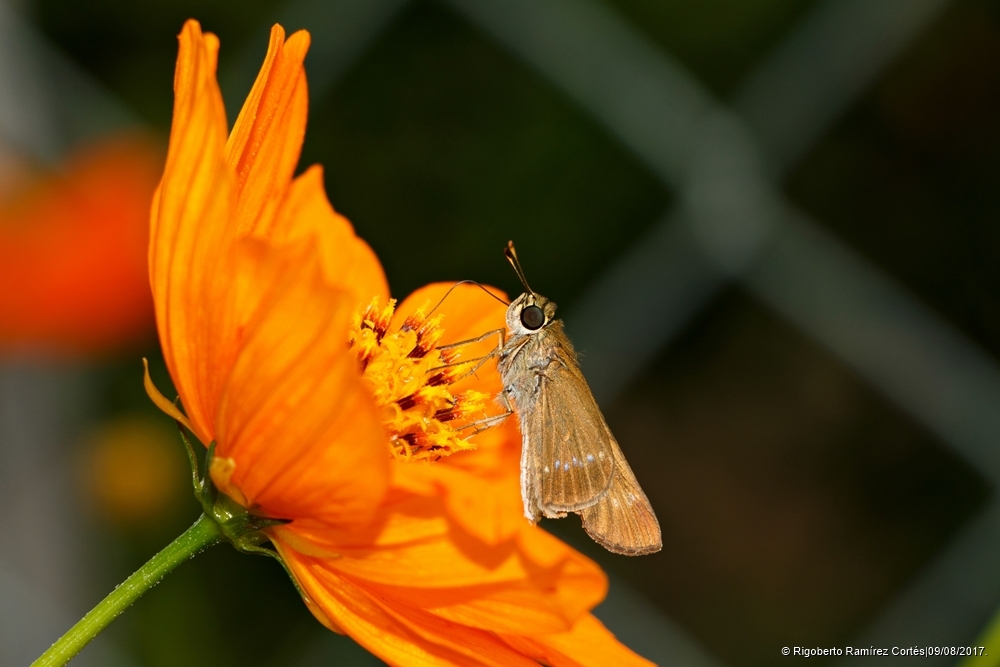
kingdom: Animalia
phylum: Arthropoda
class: Insecta
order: Lepidoptera
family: Hesperiidae
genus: Turesis
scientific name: Turesis lucas
